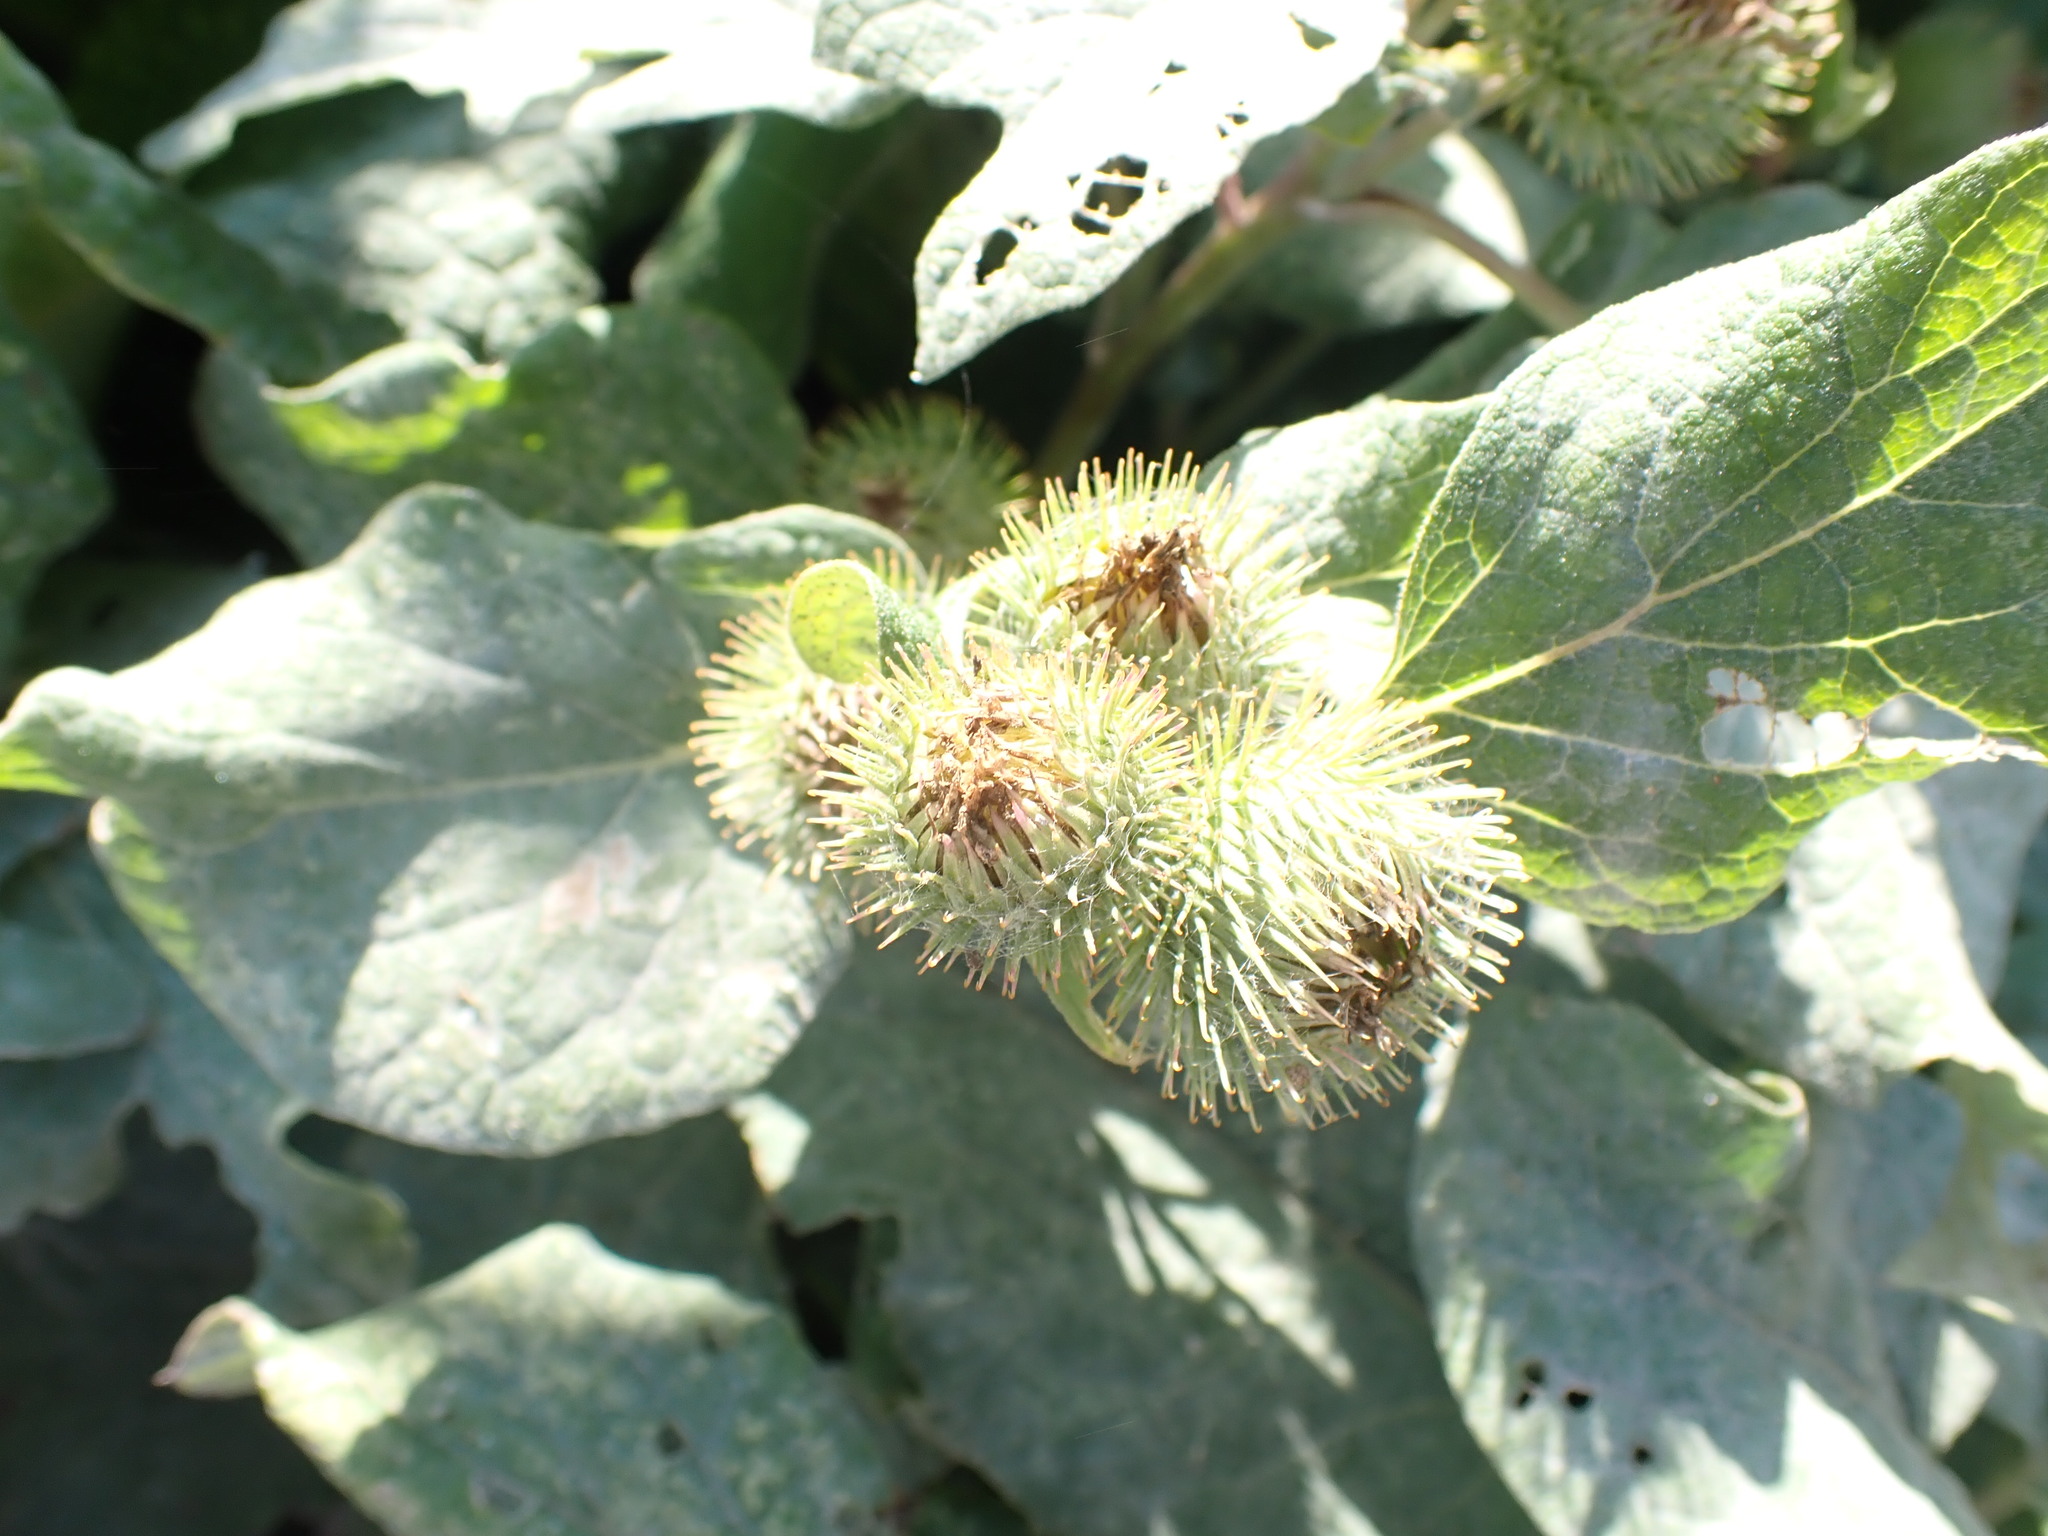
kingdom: Plantae
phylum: Tracheophyta
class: Magnoliopsida
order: Asterales
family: Asteraceae
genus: Arctium
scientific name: Arctium minus
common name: Lesser burdock
